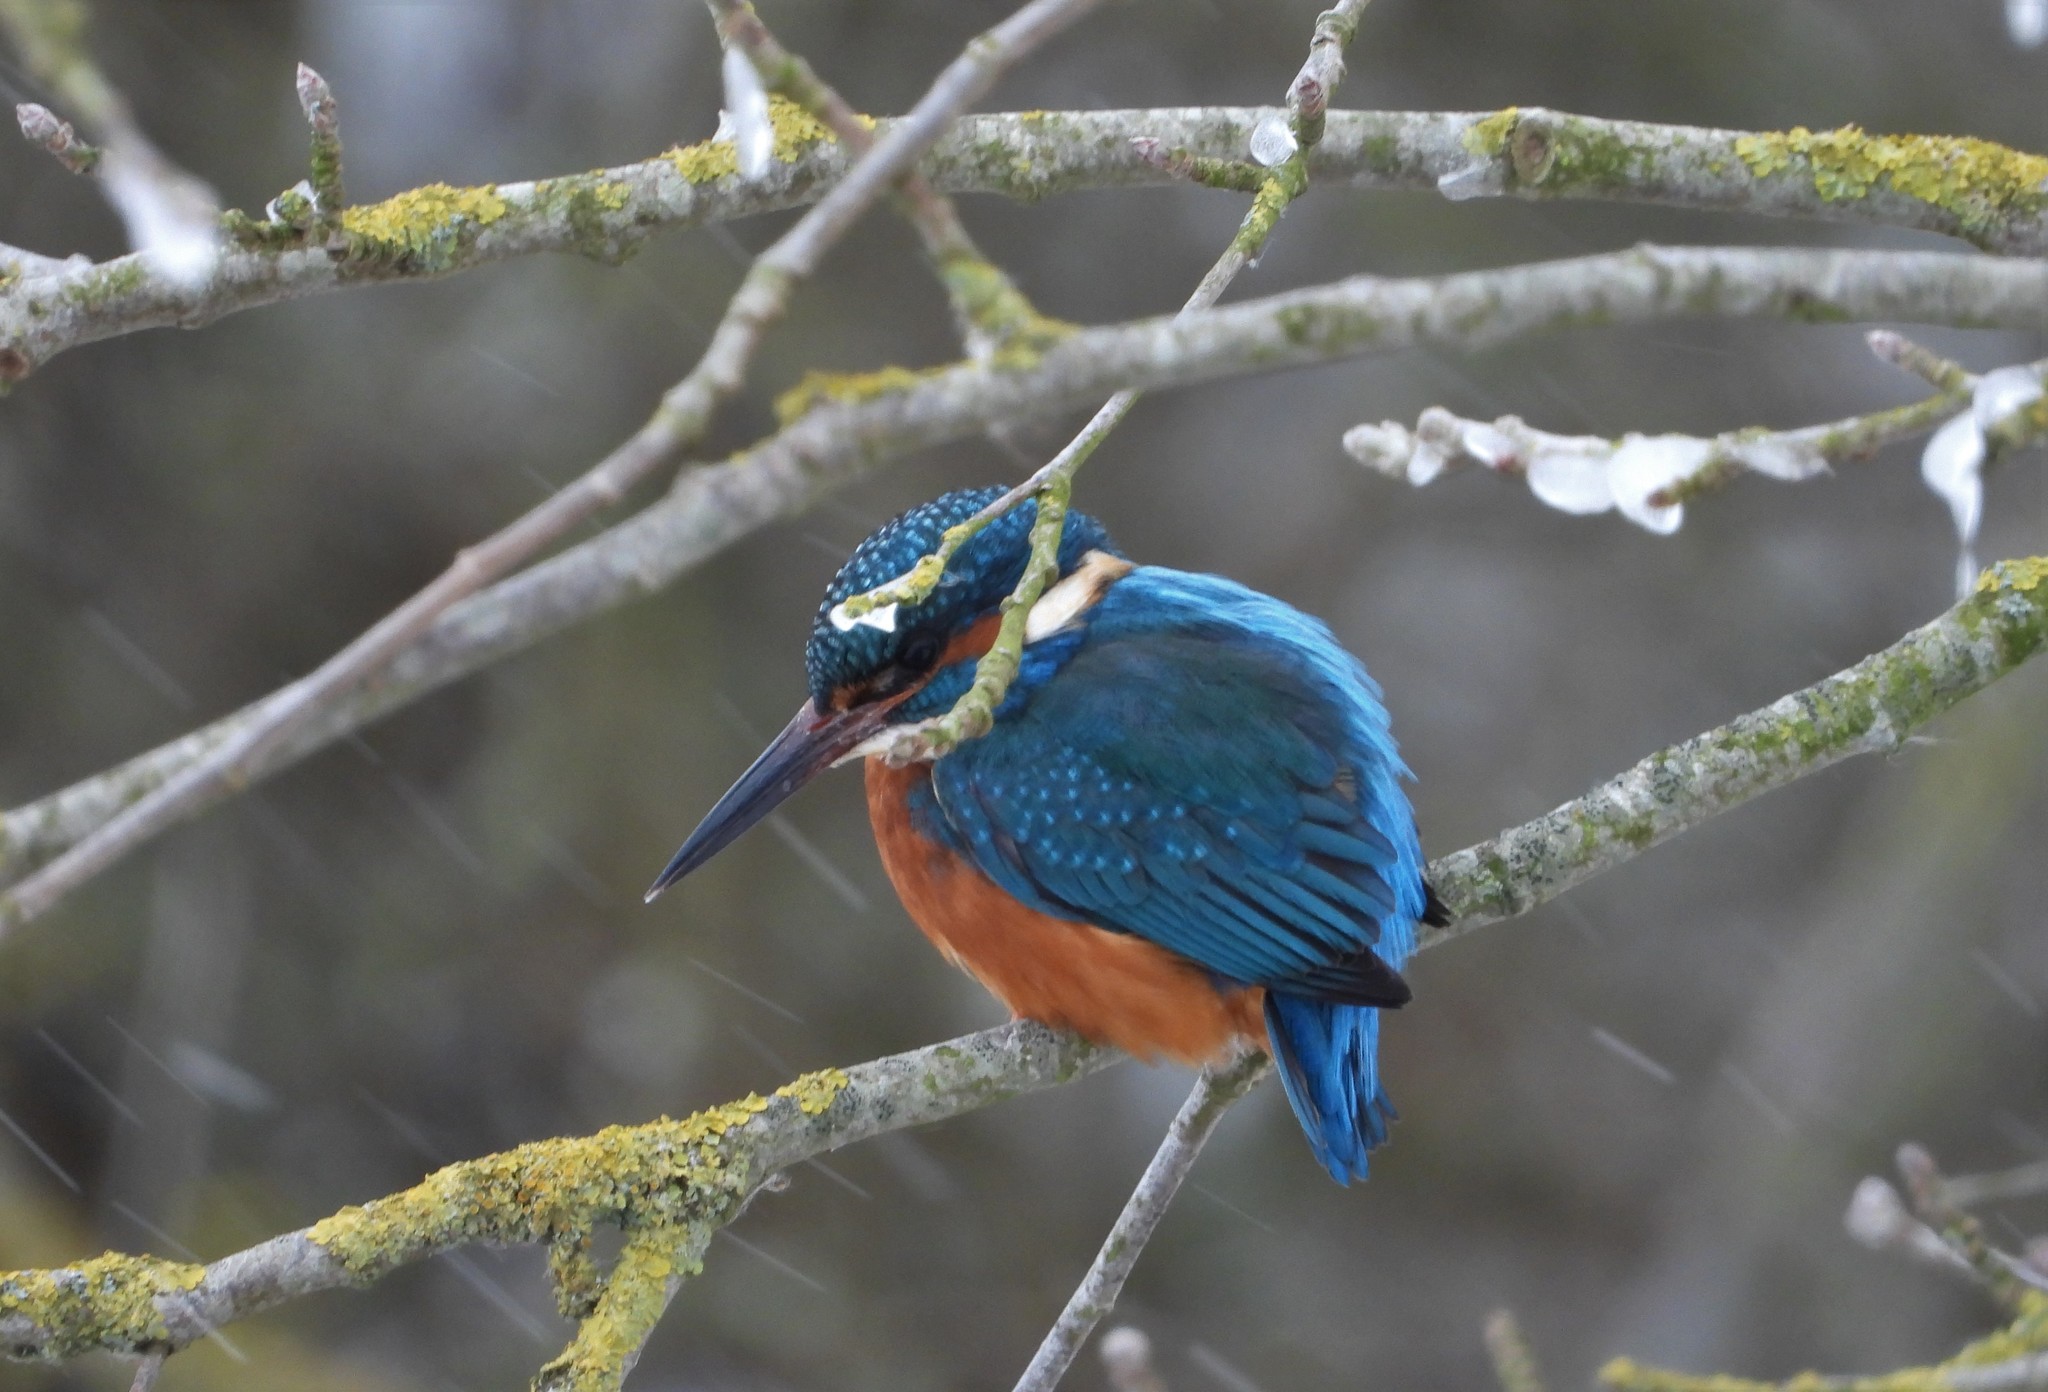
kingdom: Animalia
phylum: Chordata
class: Aves
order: Coraciiformes
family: Alcedinidae
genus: Alcedo
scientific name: Alcedo atthis
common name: Common kingfisher
